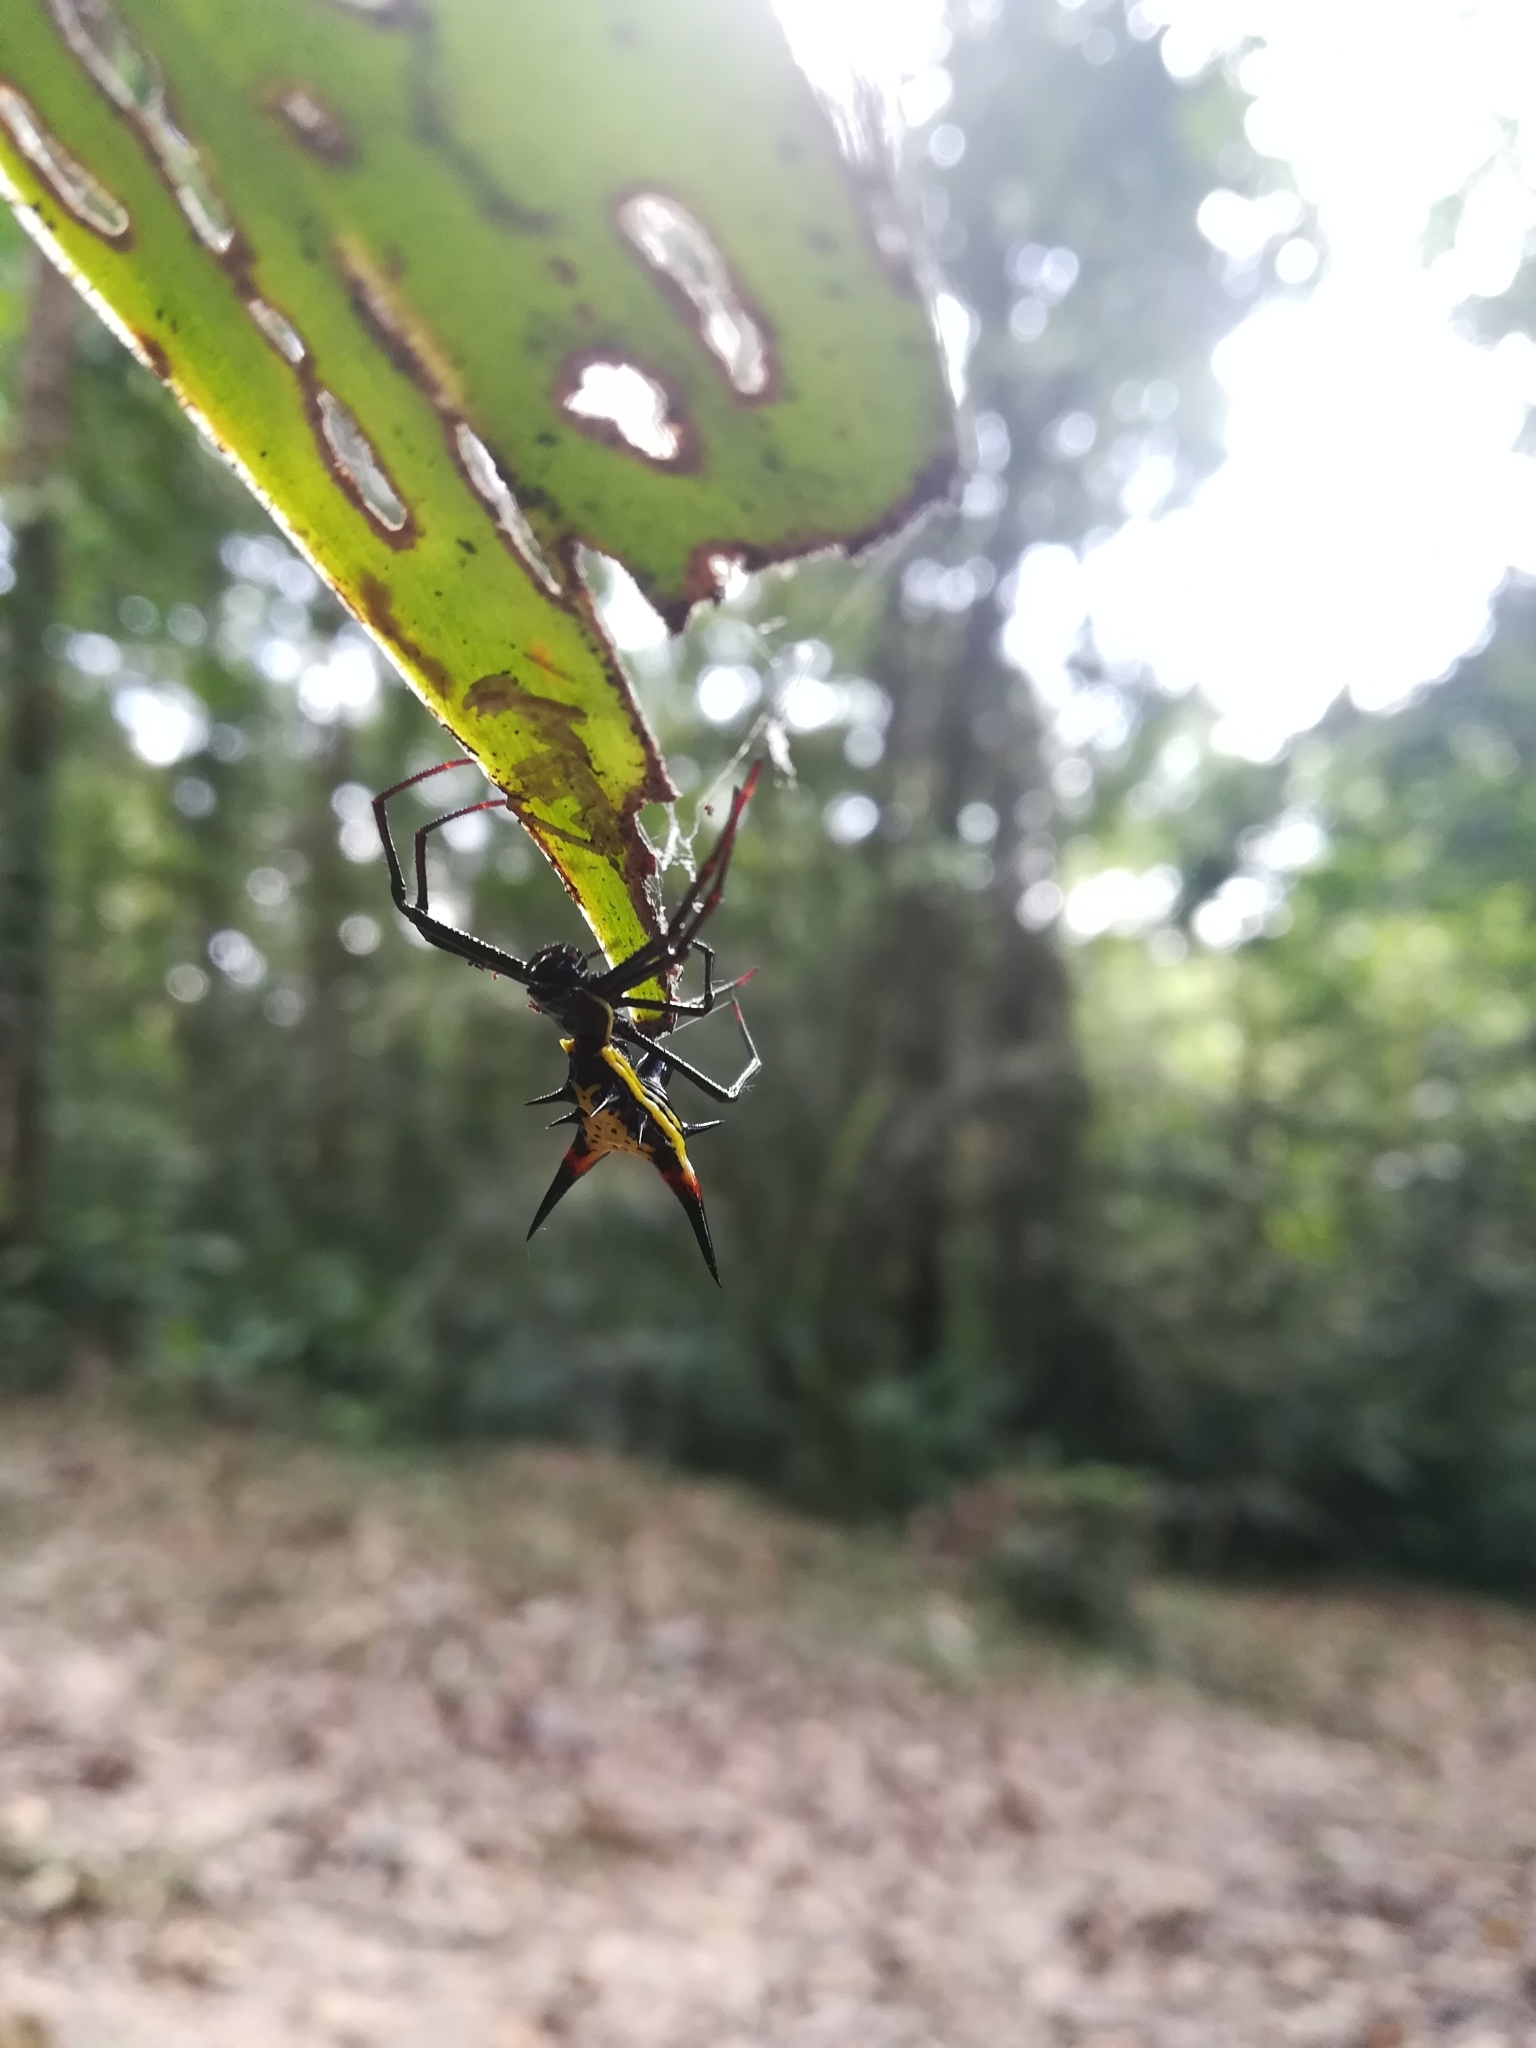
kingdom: Animalia
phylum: Arthropoda
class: Arachnida
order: Araneae
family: Araneidae
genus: Micrathena
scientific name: Micrathena schreibersi
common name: Orb weavers
